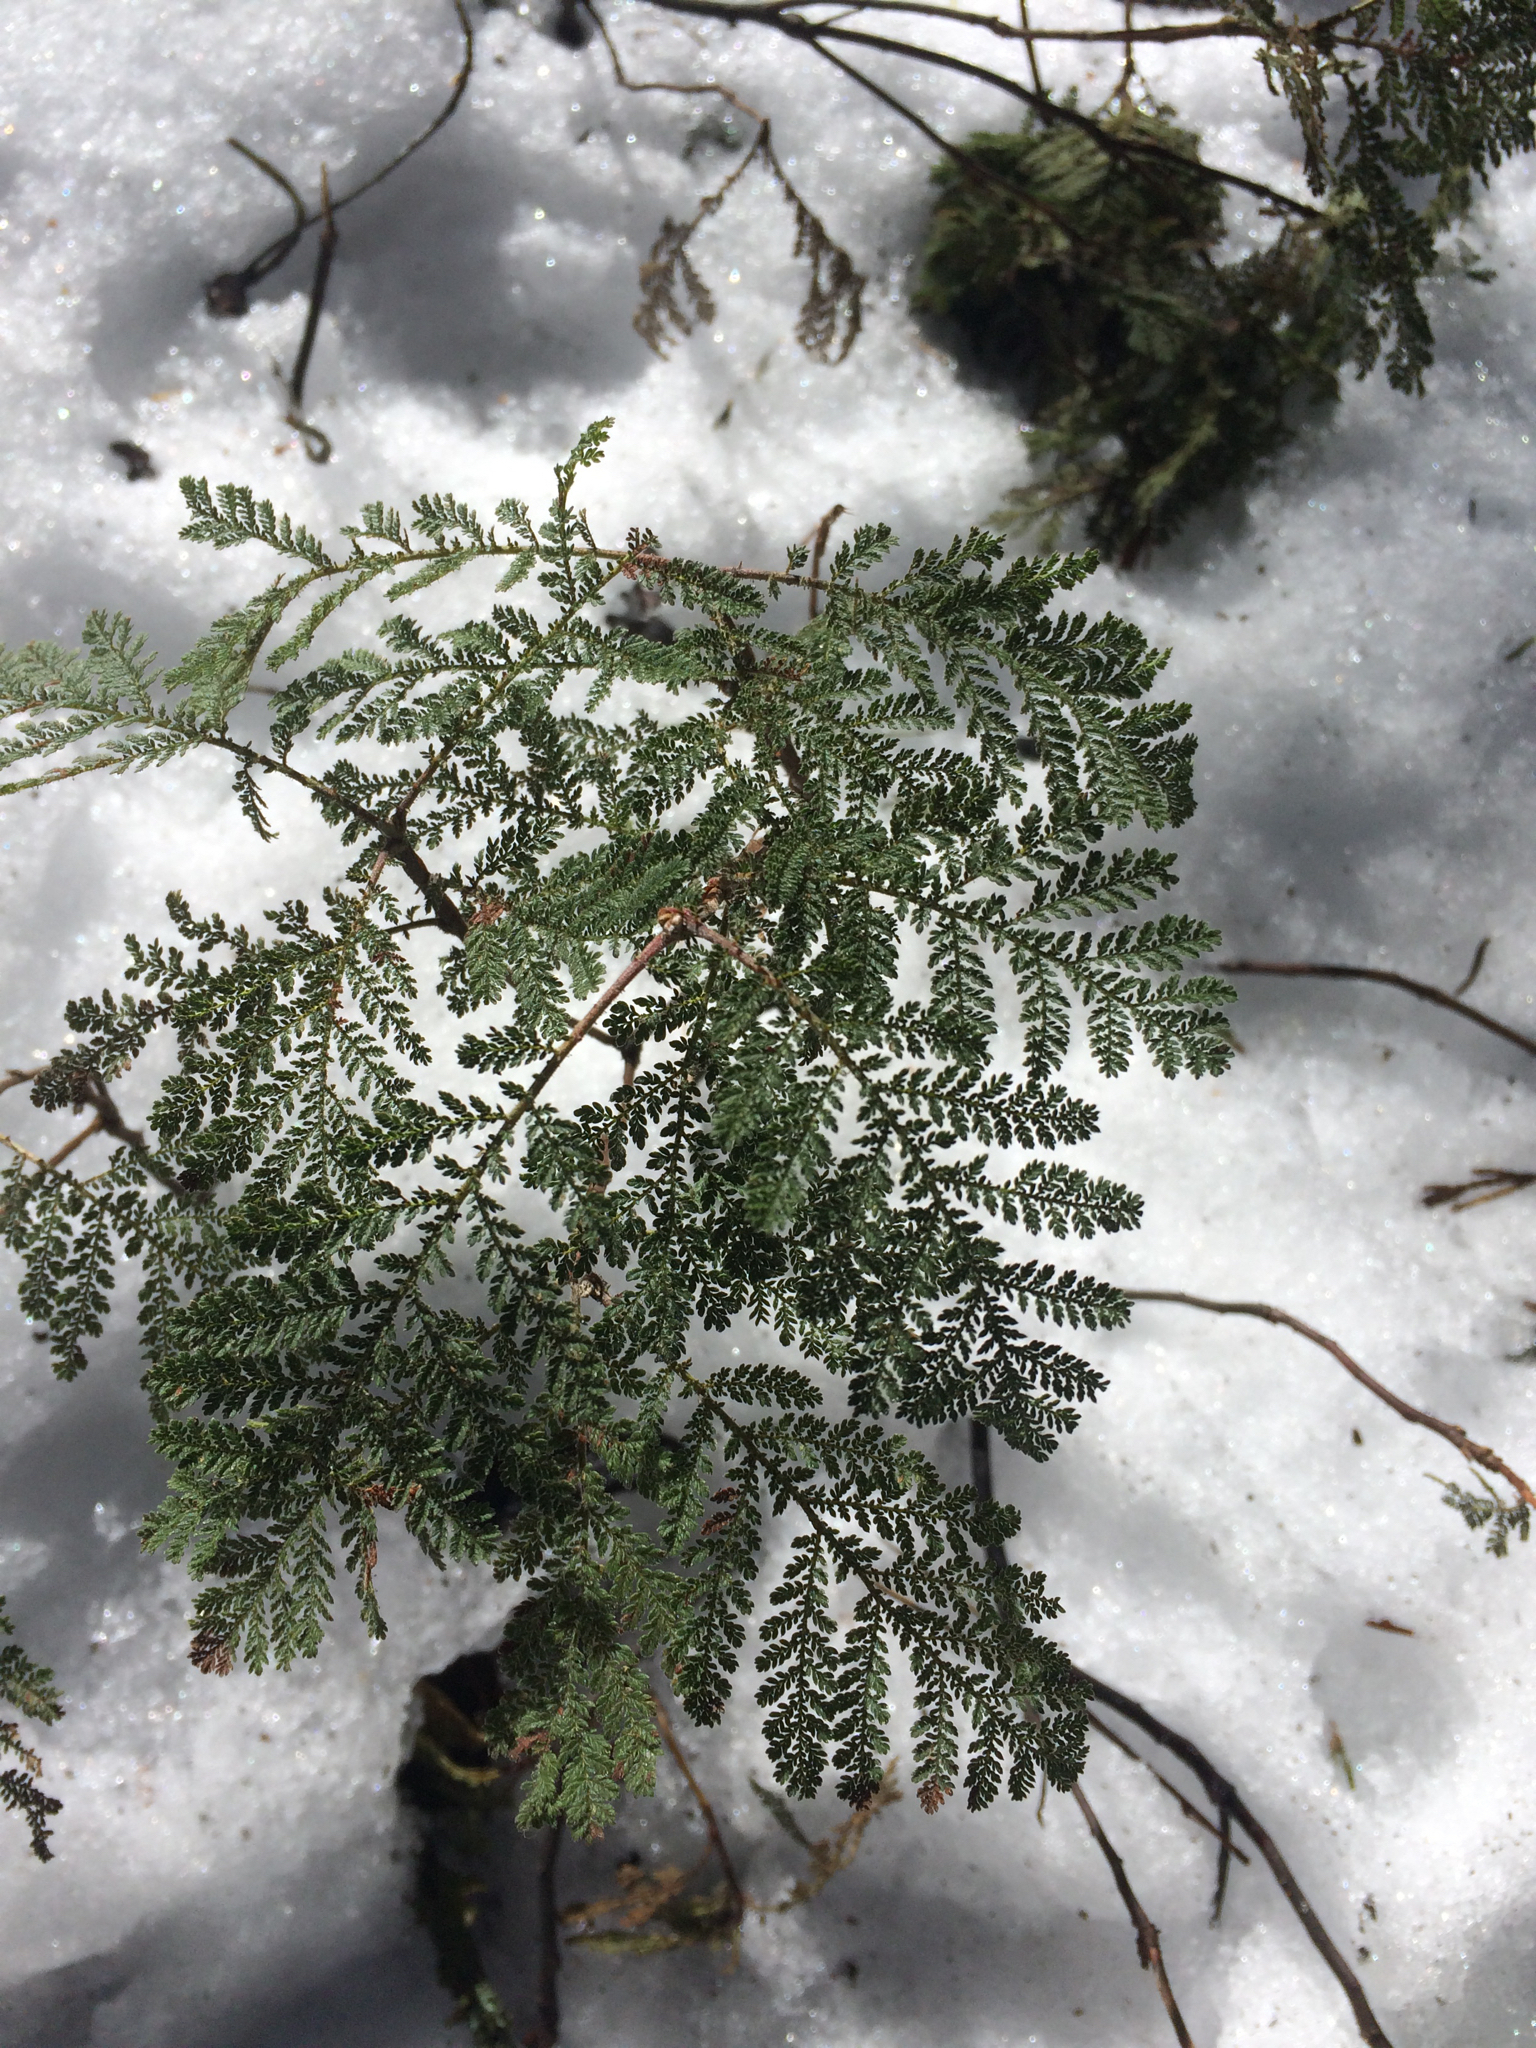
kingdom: Plantae
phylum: Tracheophyta
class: Magnoliopsida
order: Rosales
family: Rosaceae
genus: Chamaebatia
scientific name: Chamaebatia foliolosa
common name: Mountain misery
